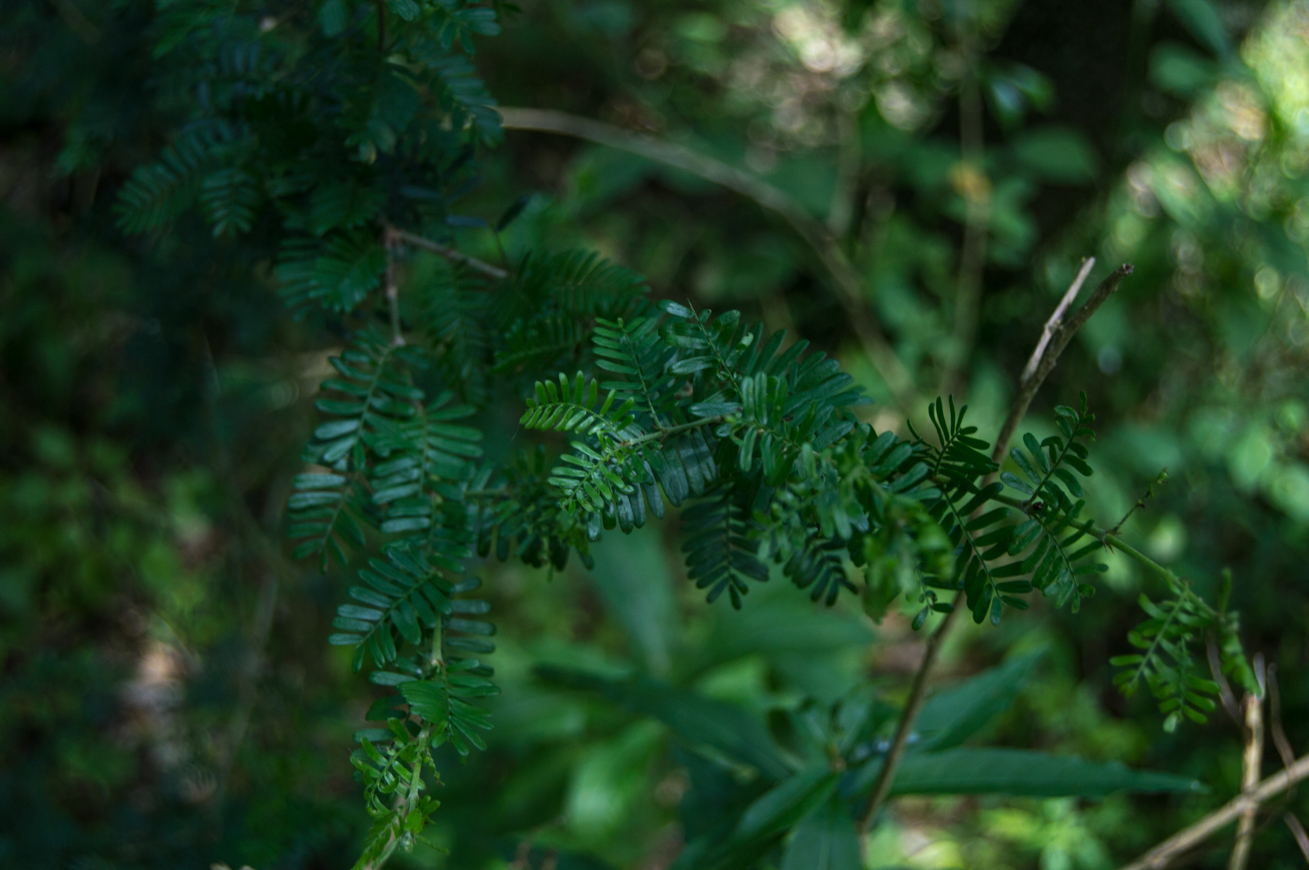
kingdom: Plantae
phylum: Tracheophyta
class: Magnoliopsida
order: Zygophyllales
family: Zygophyllaceae
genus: Porlieria
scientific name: Porlieria microphylla
